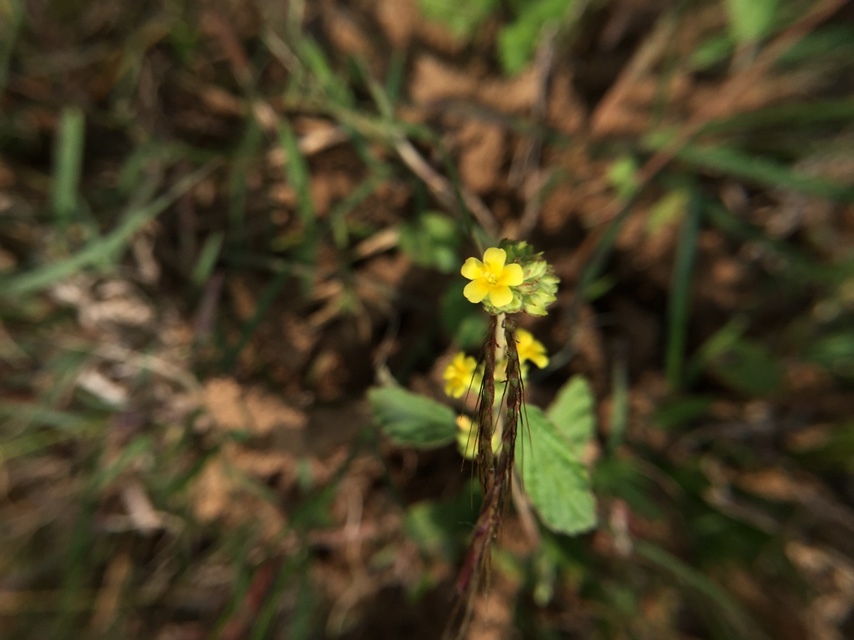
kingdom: Plantae
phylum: Tracheophyta
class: Magnoliopsida
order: Malvales
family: Malvaceae
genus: Waltheria
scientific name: Waltheria indica
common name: Leather-coat
